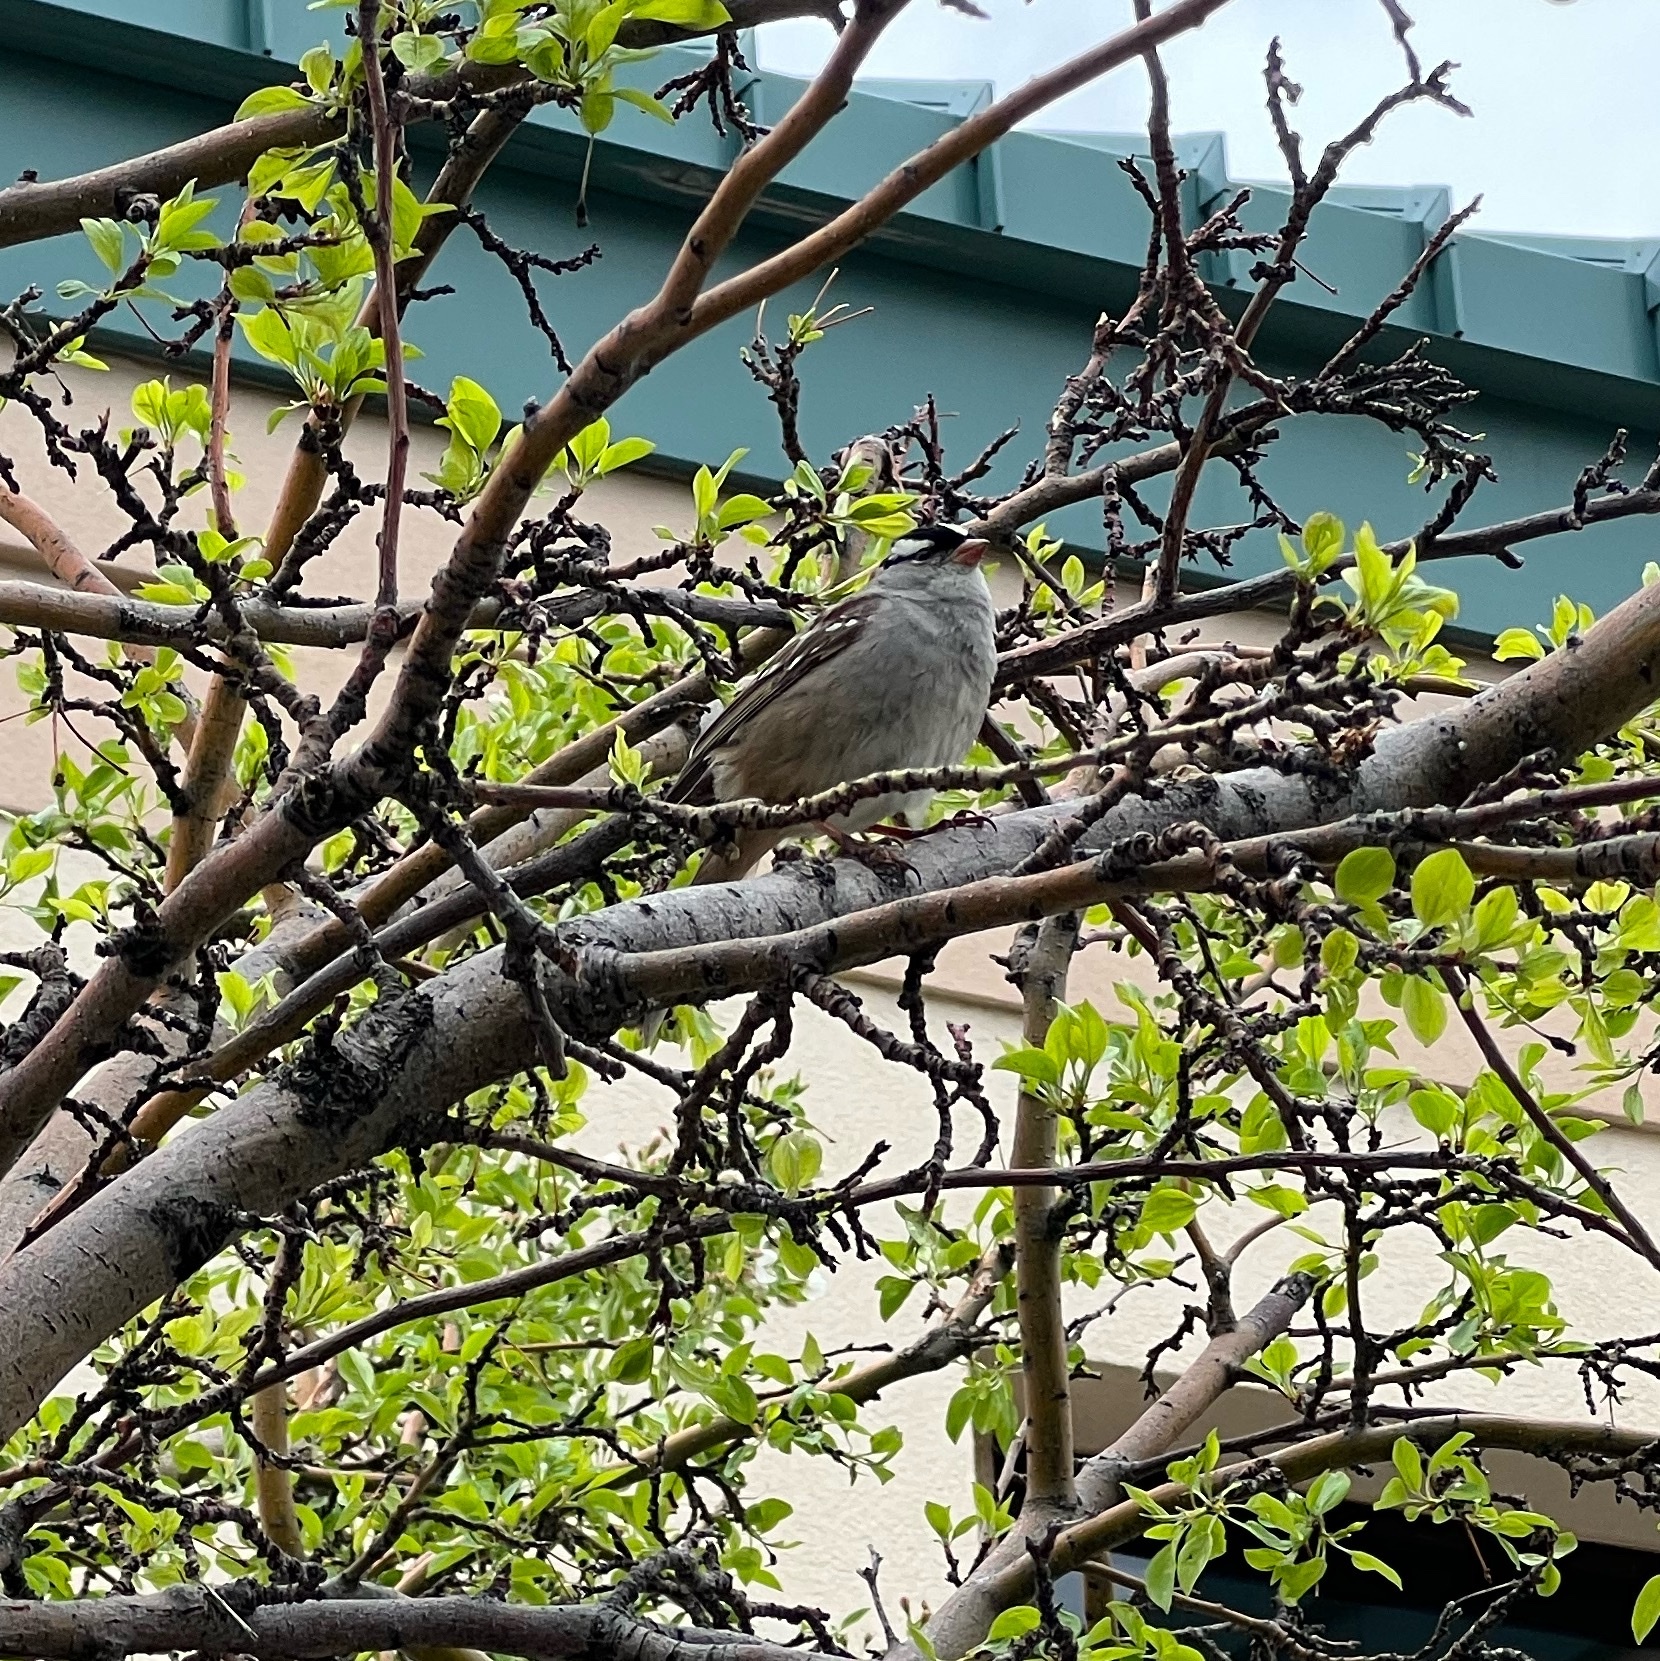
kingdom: Animalia
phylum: Chordata
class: Aves
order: Passeriformes
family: Passerellidae
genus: Zonotrichia
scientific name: Zonotrichia leucophrys
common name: White-crowned sparrow
